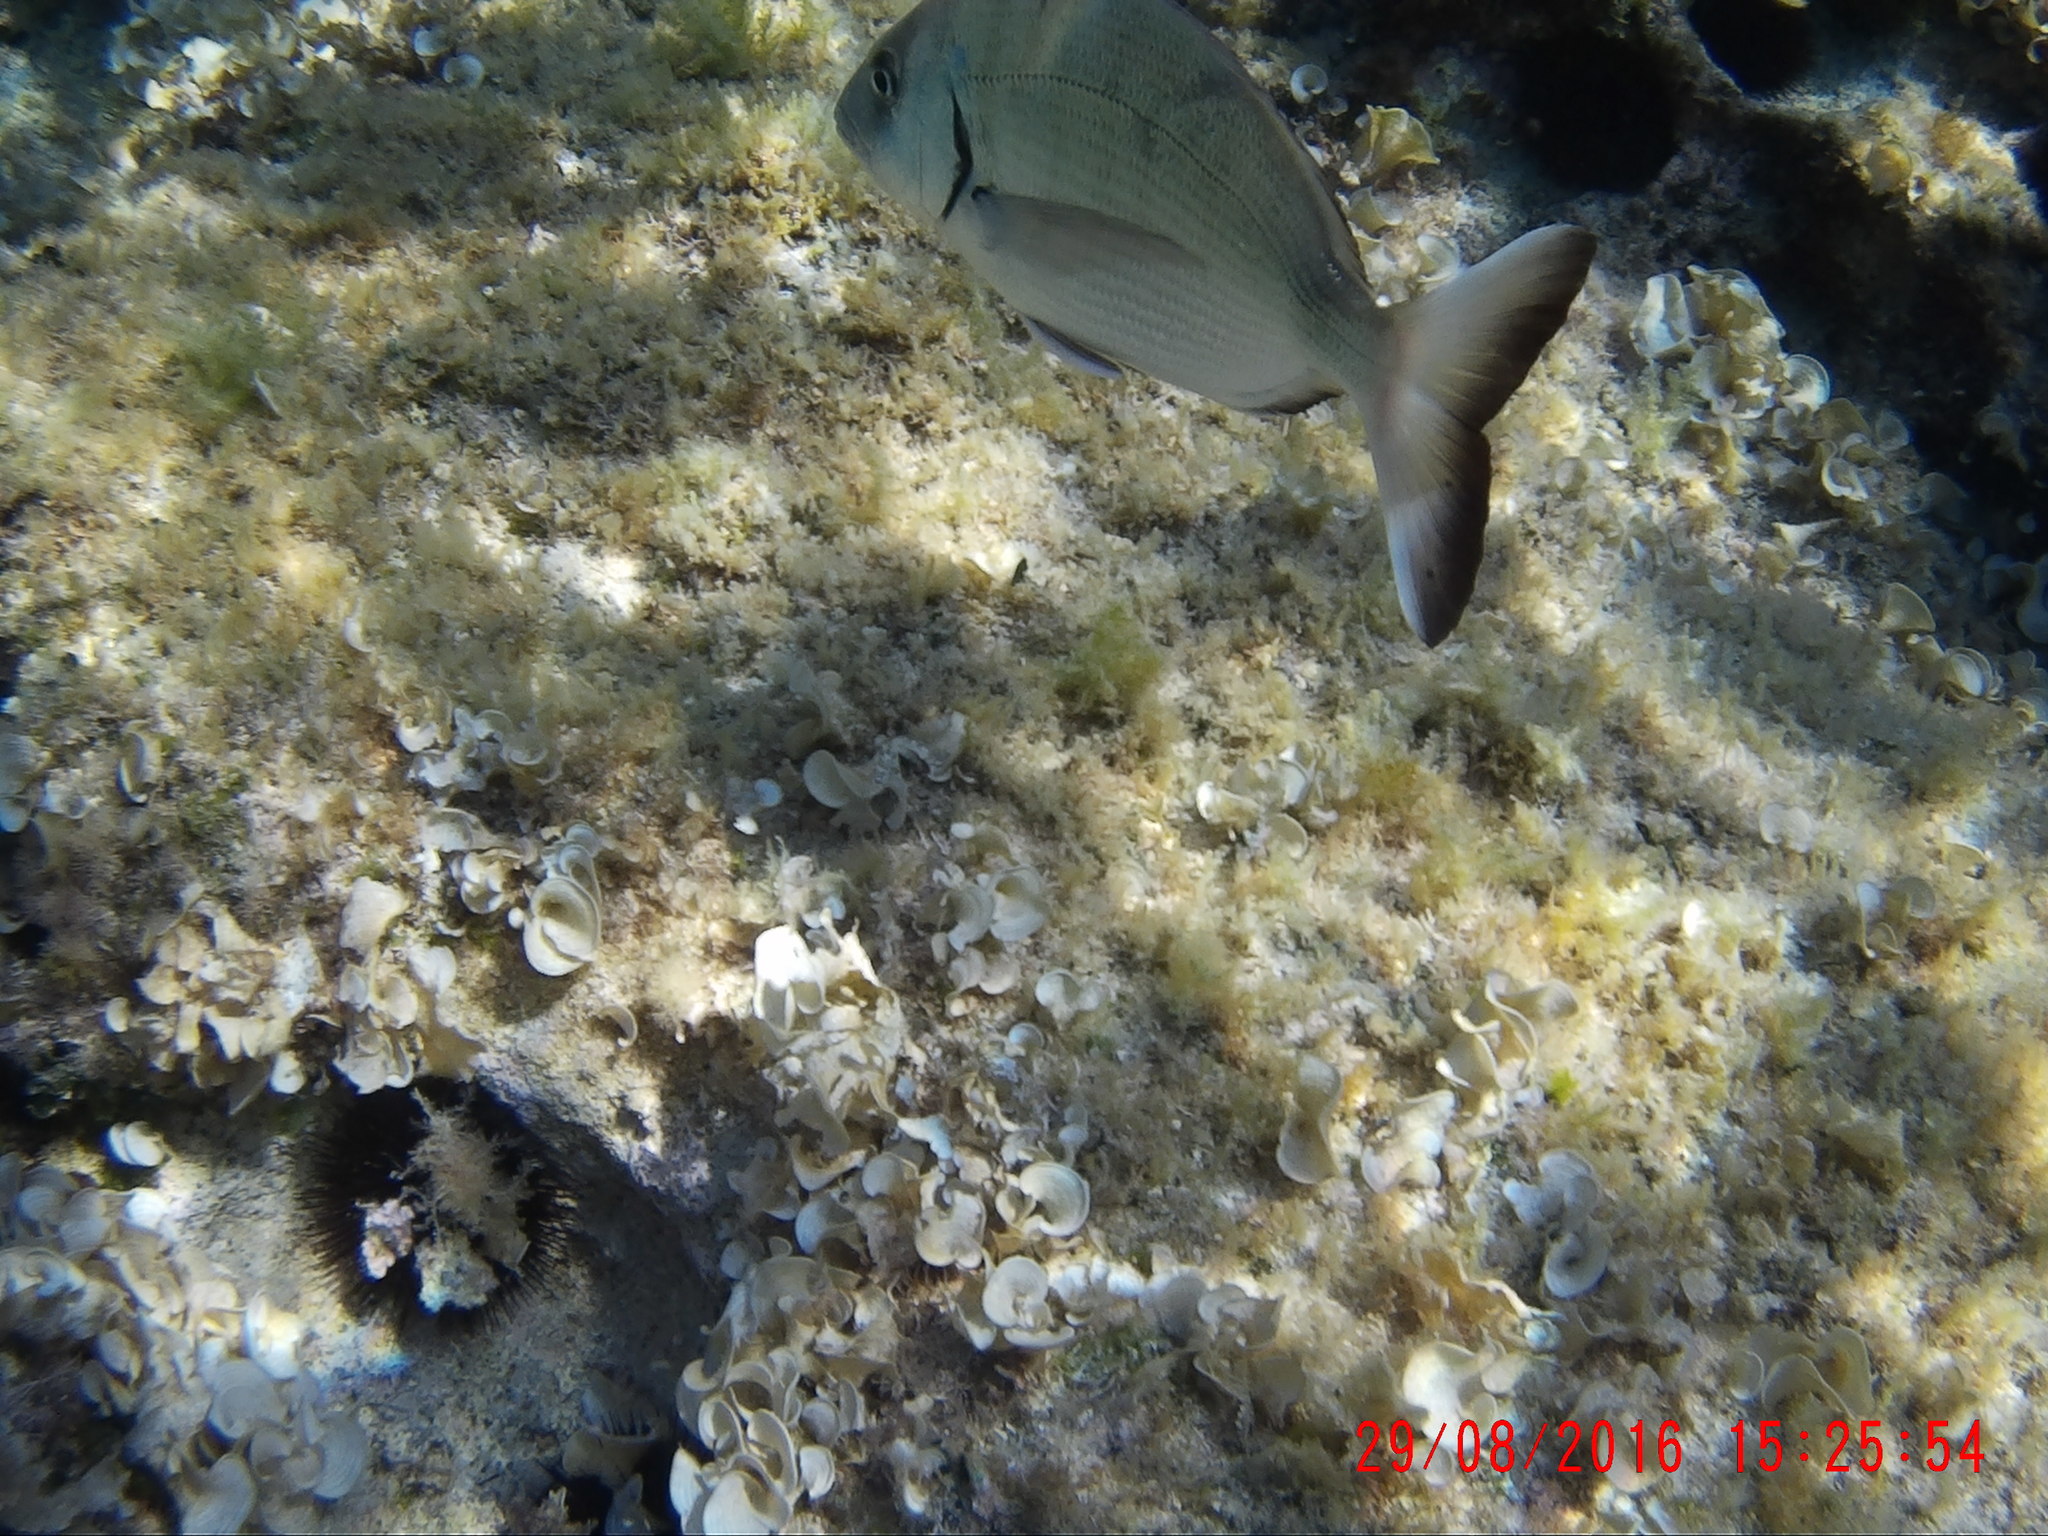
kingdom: Animalia
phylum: Chordata
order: Perciformes
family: Sparidae
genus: Diplodus
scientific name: Diplodus sargus
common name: White seabream
